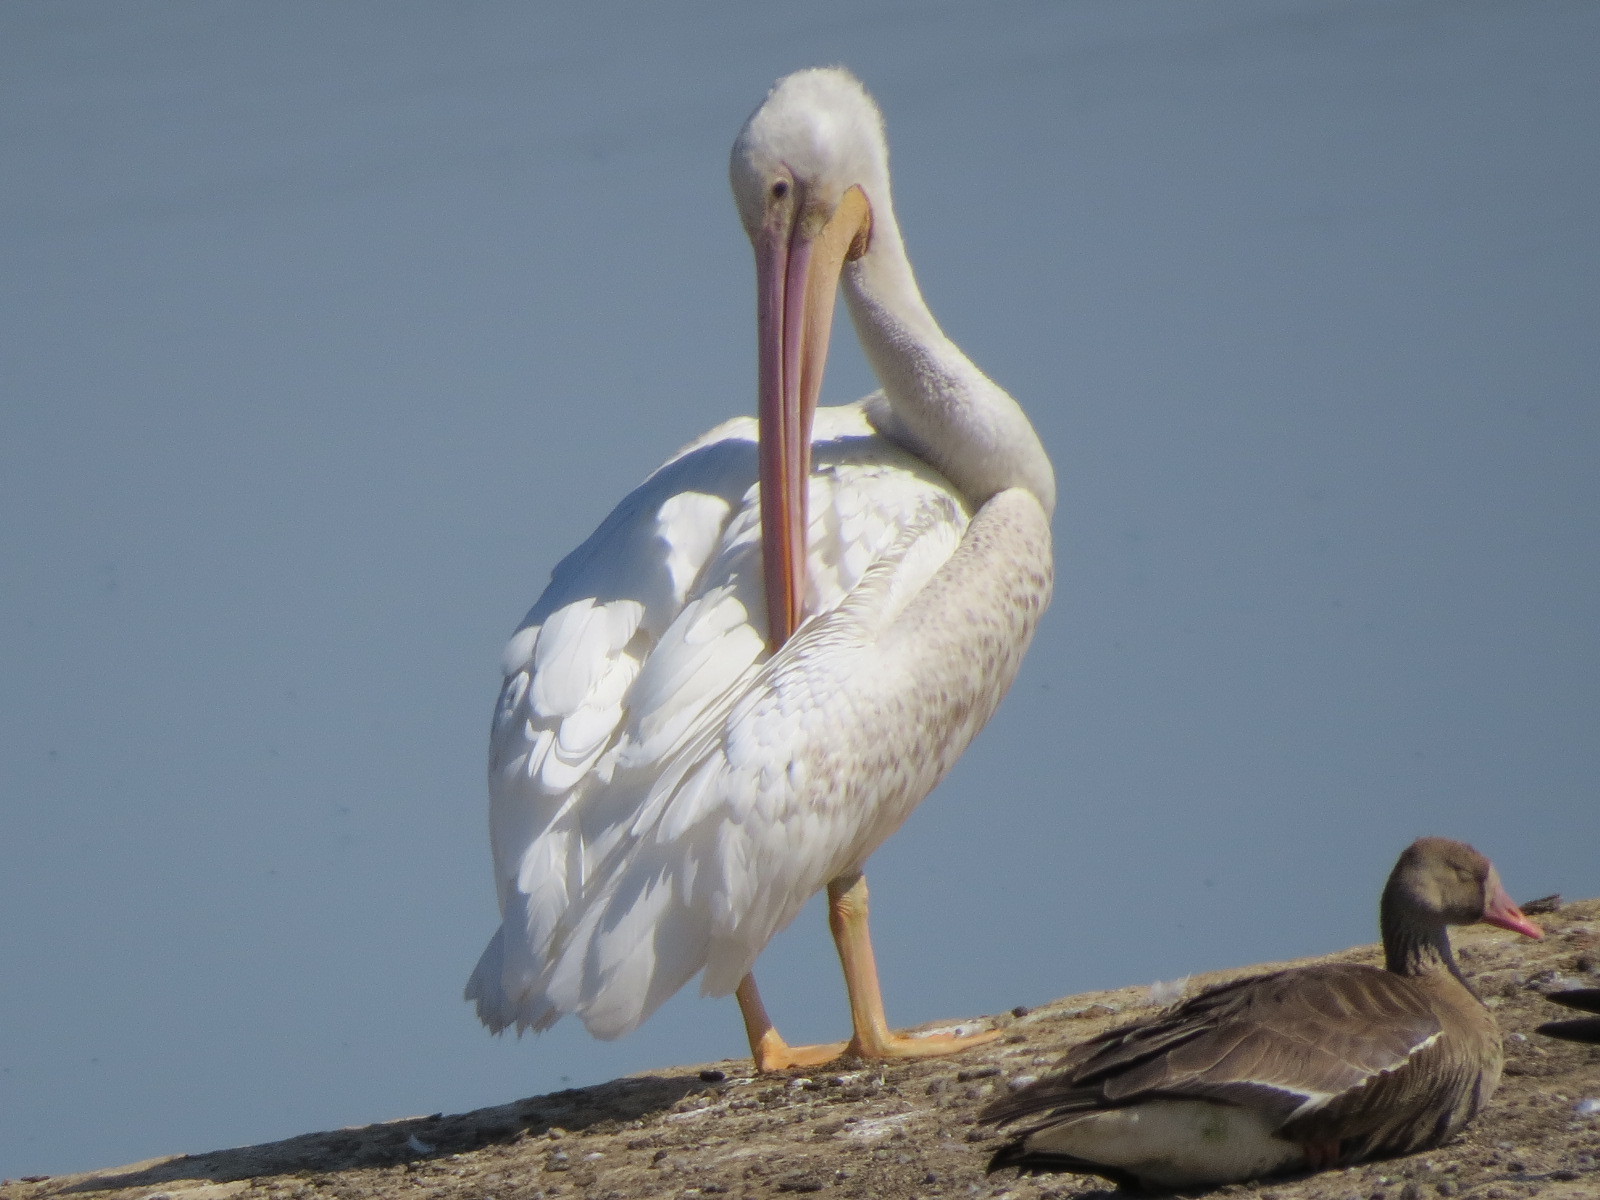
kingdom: Animalia
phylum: Chordata
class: Aves
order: Pelecaniformes
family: Pelecanidae
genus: Pelecanus
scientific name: Pelecanus erythrorhynchos
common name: American white pelican
